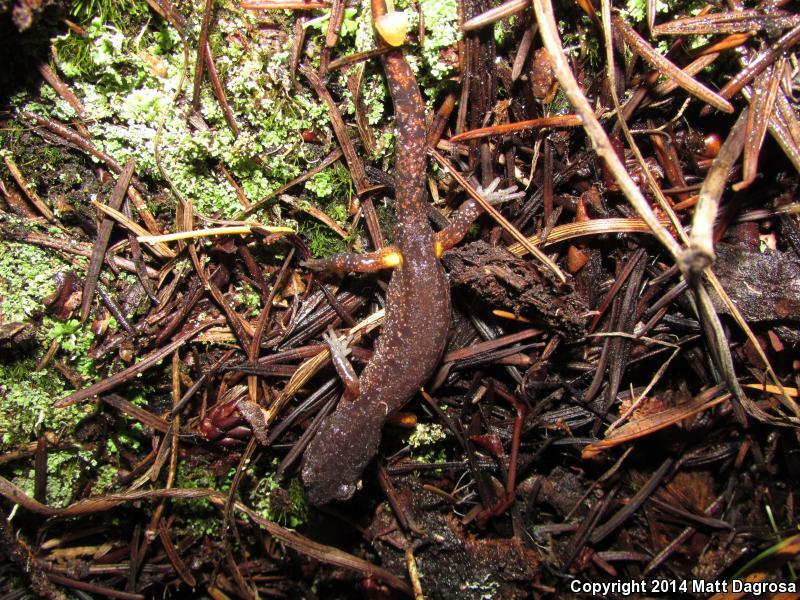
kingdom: Animalia
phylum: Chordata
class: Amphibia
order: Caudata
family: Plethodontidae
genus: Ensatina
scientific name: Ensatina eschscholtzii
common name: Ensatina
